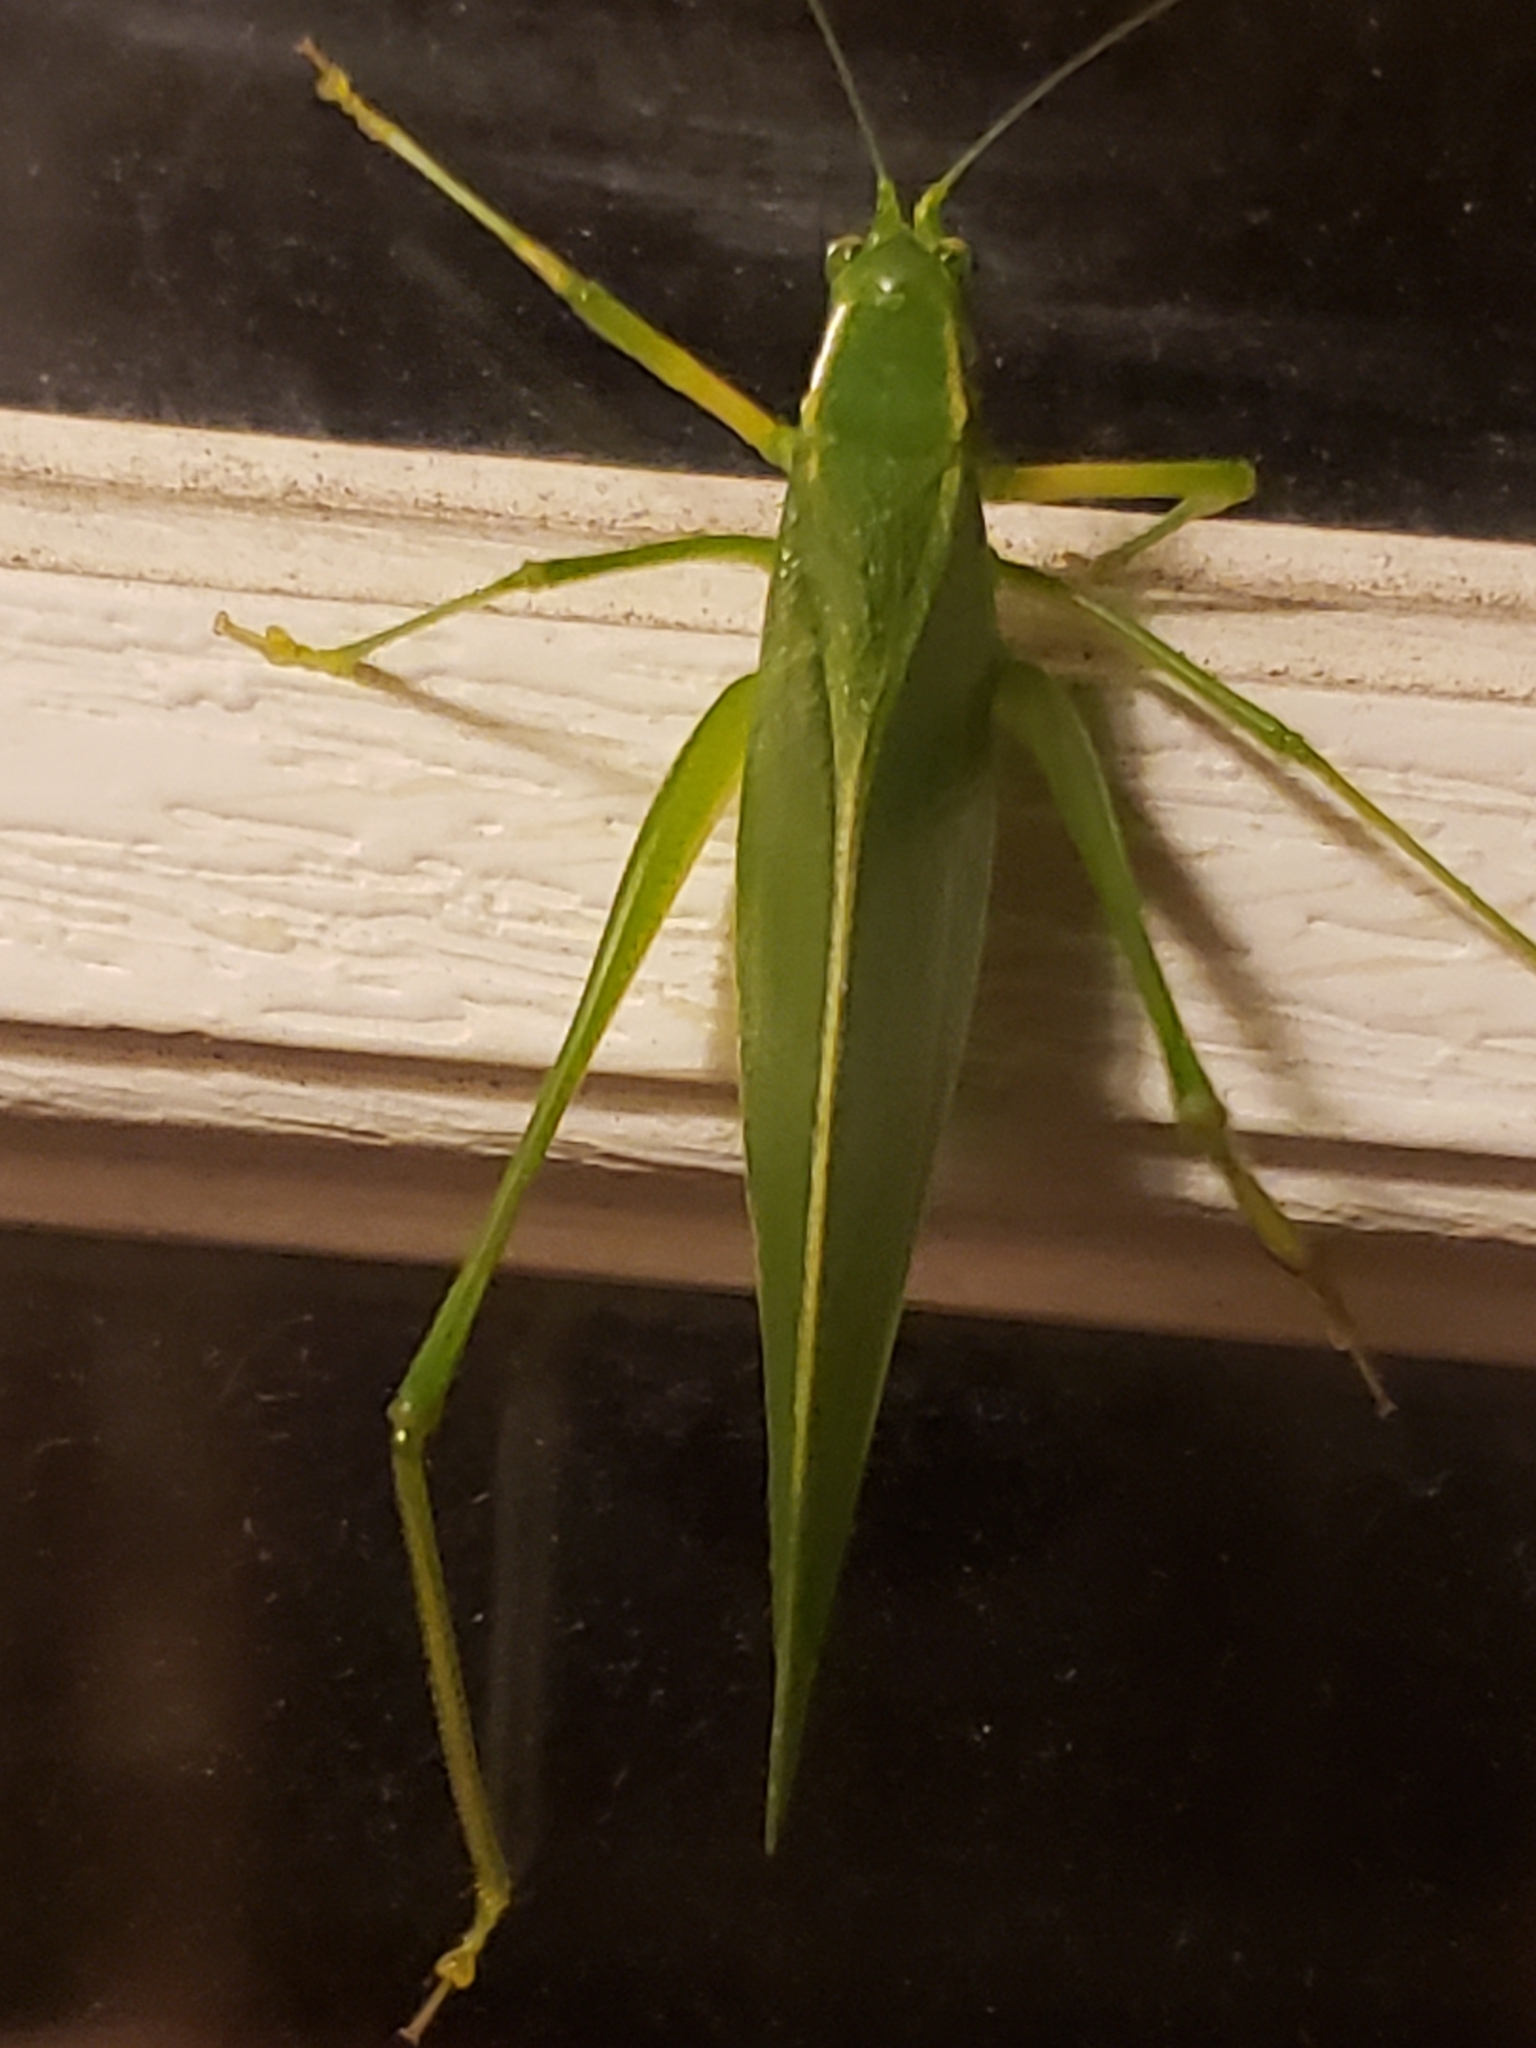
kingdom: Animalia
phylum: Arthropoda
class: Insecta
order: Orthoptera
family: Tettigoniidae
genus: Scudderia
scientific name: Scudderia septentrionalis
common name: Northern bush-katydid
